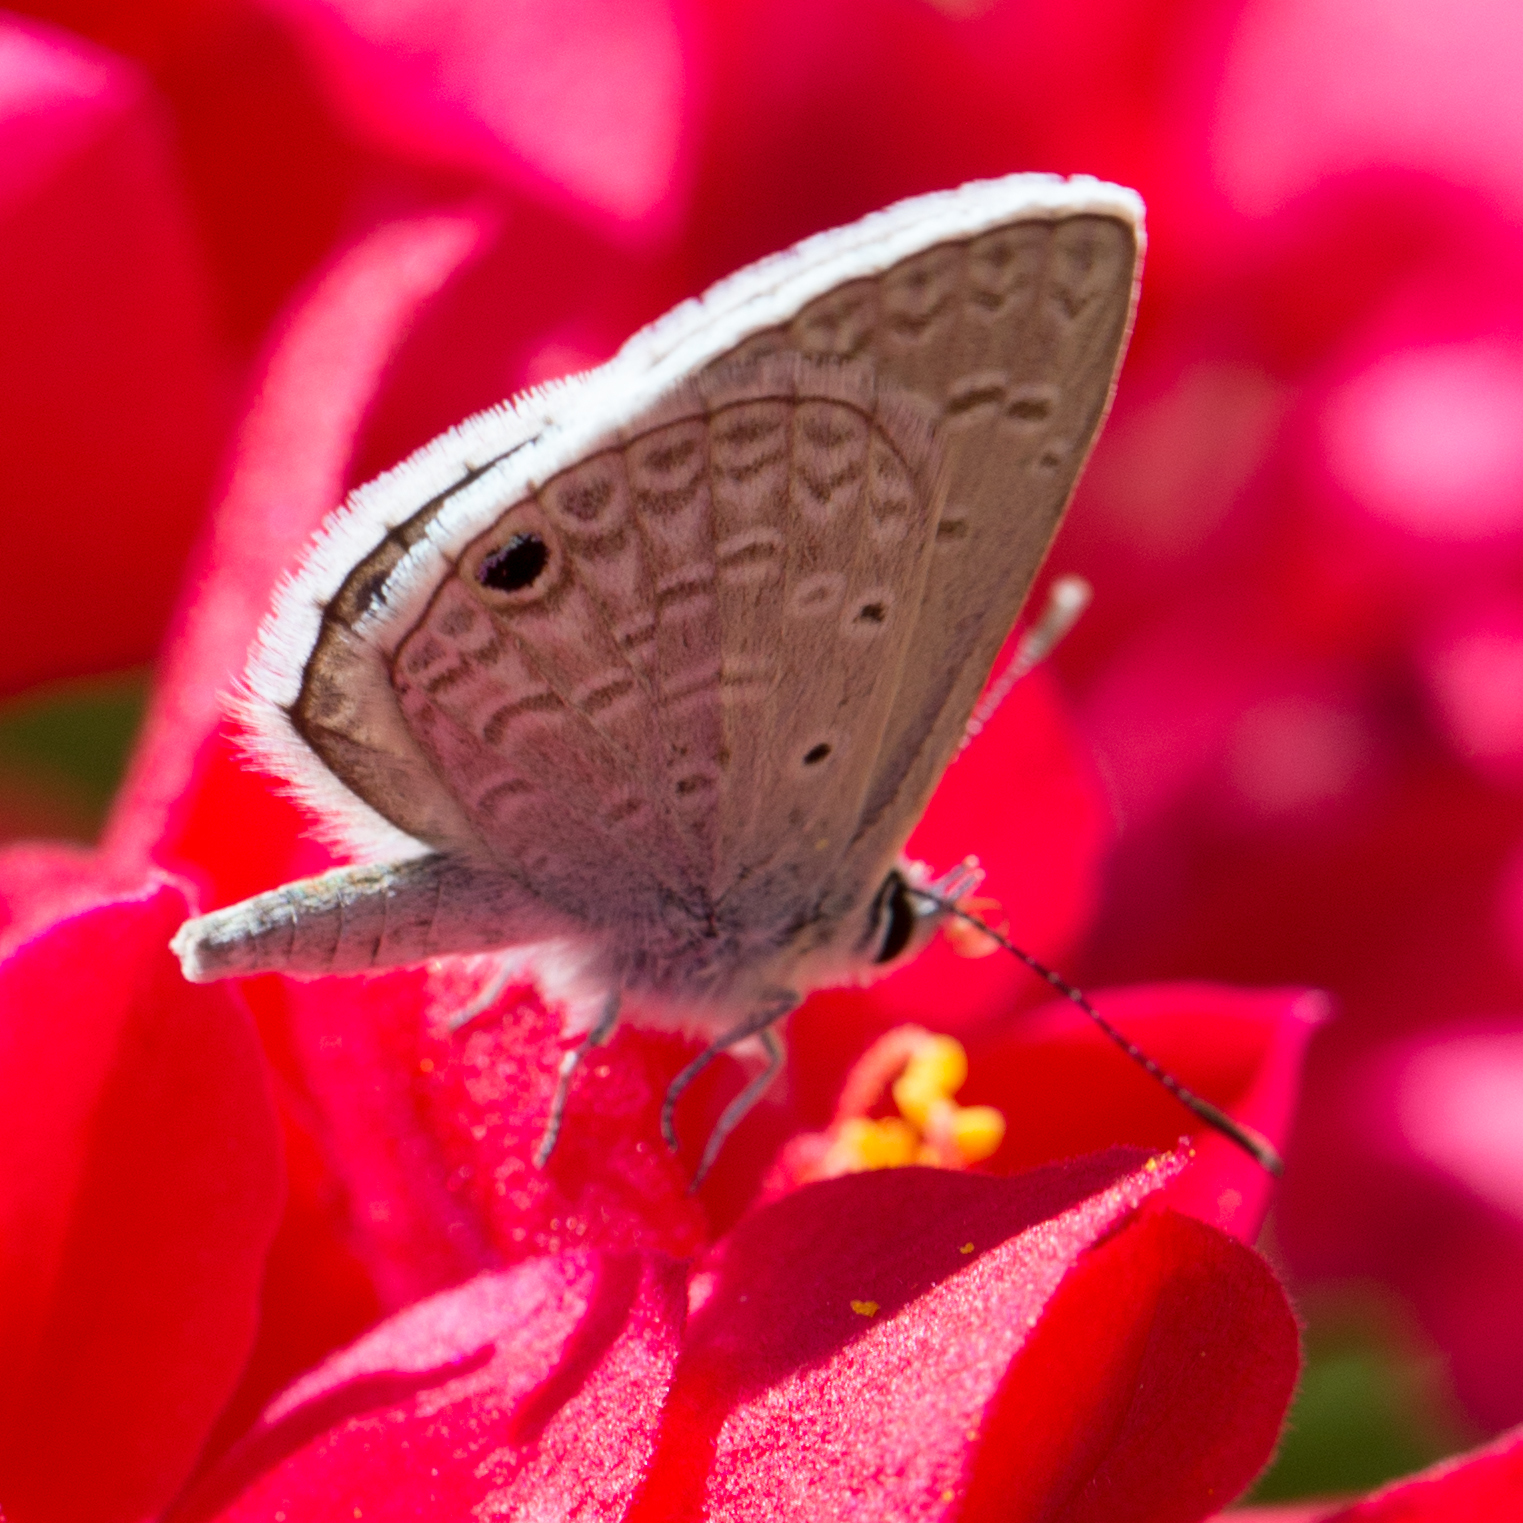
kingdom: Animalia
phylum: Arthropoda
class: Insecta
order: Lepidoptera
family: Lycaenidae
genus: Hemiargus
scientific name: Hemiargus ceraunus
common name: Ceraunus blue
